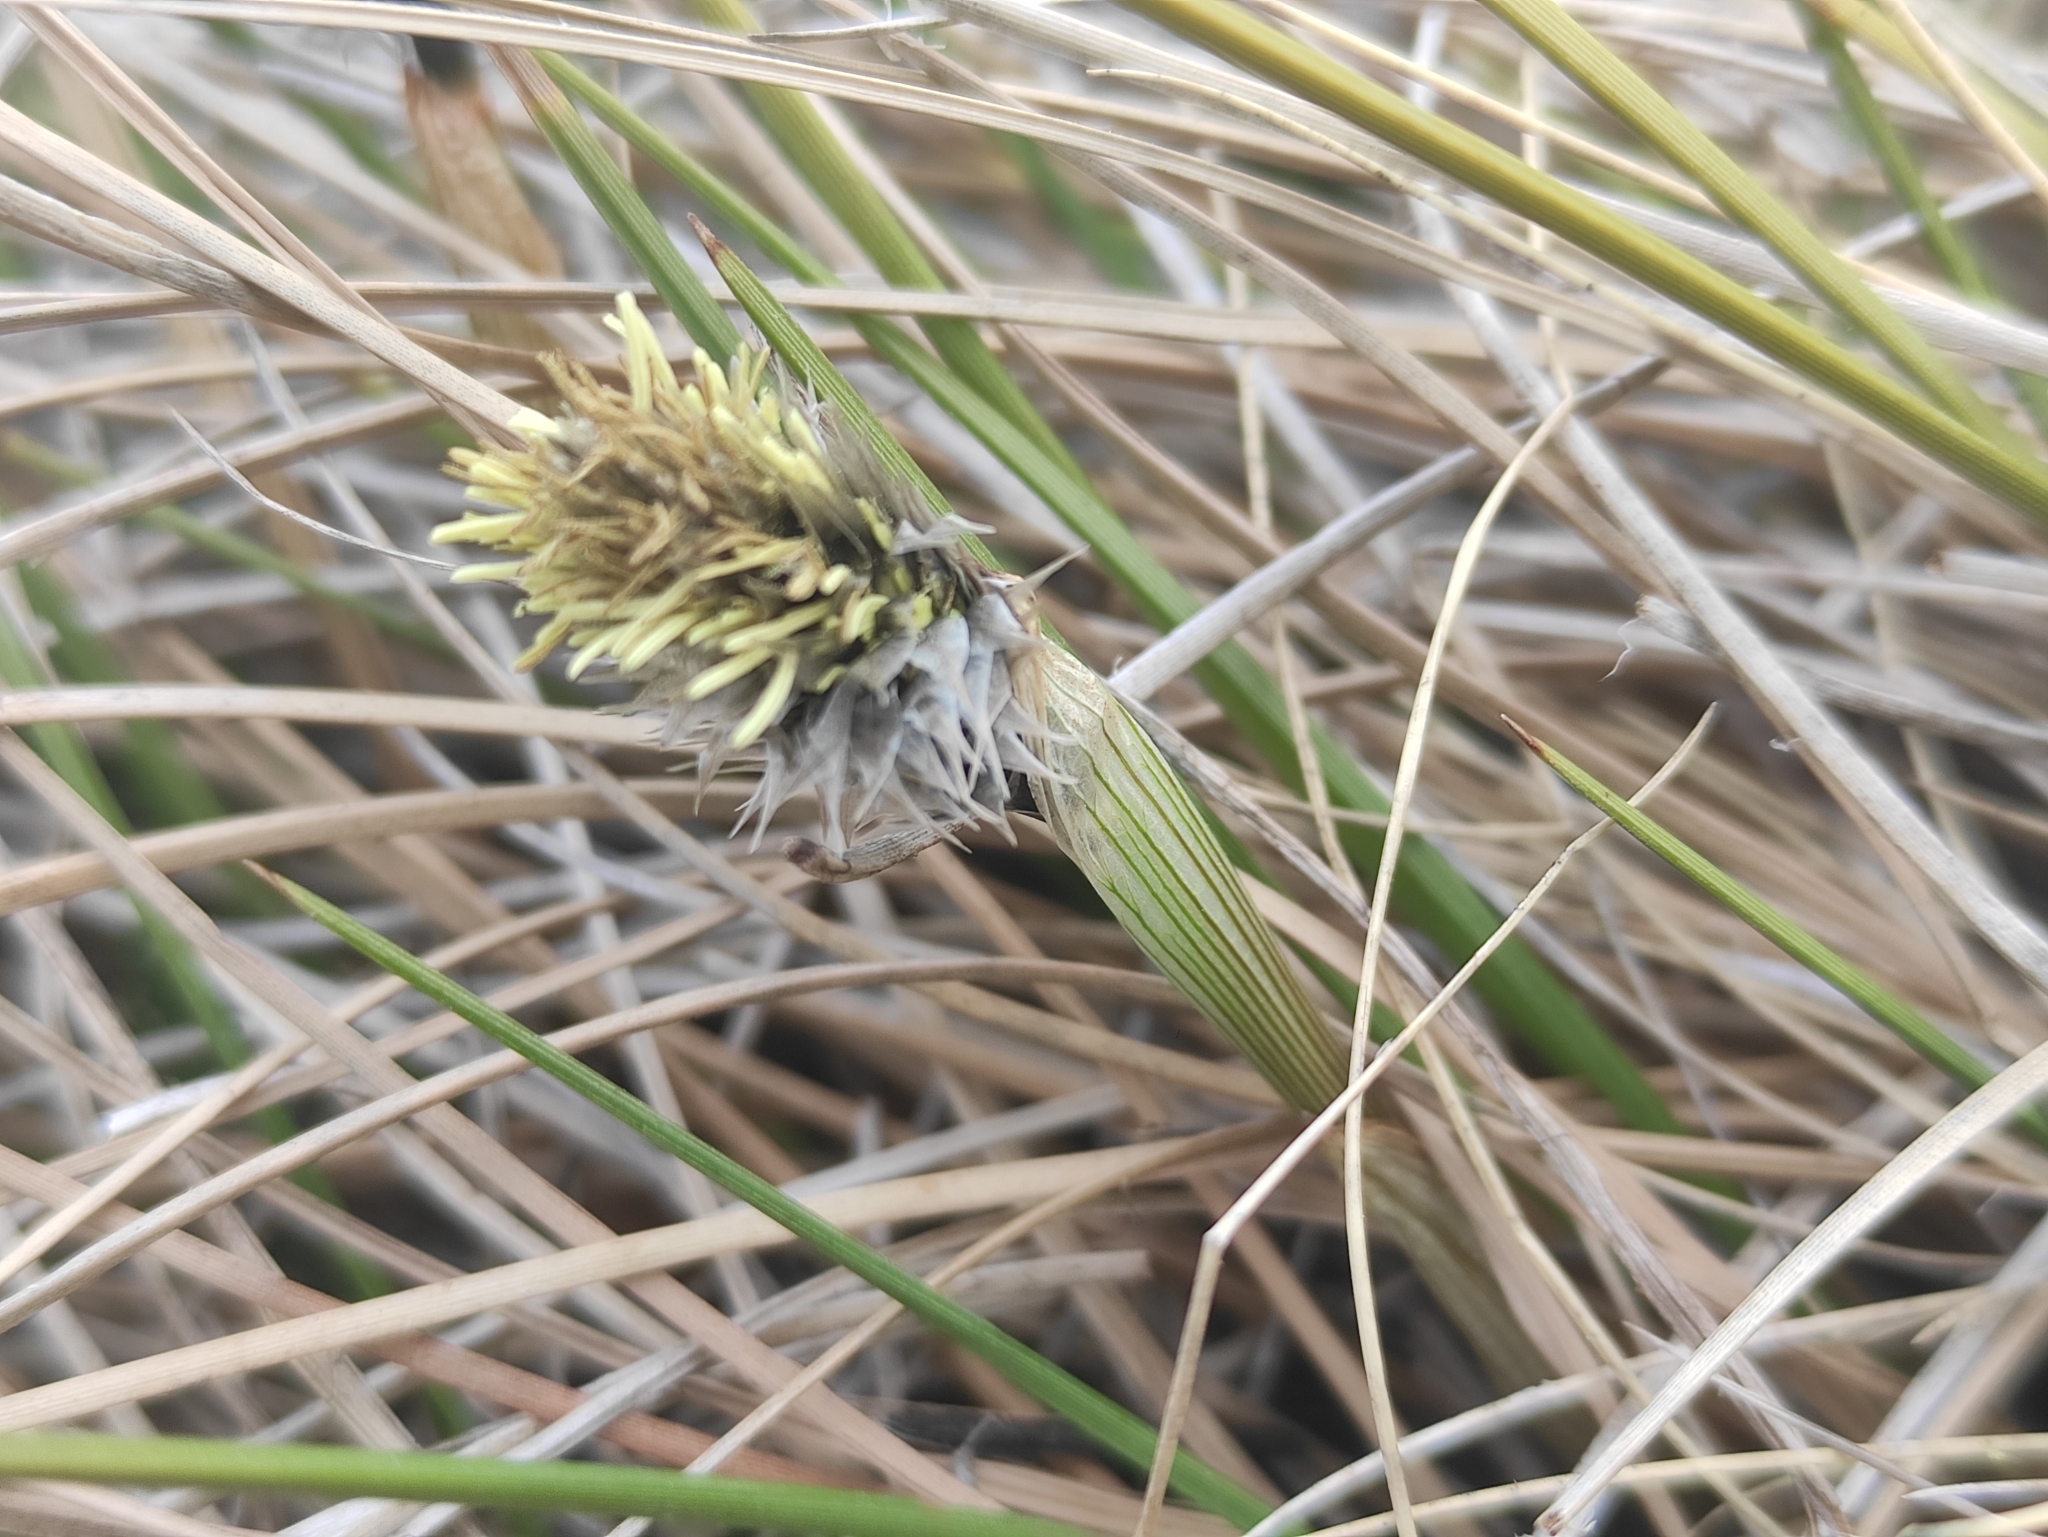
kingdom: Plantae
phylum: Tracheophyta
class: Liliopsida
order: Poales
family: Cyperaceae
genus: Eriophorum
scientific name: Eriophorum vaginatum
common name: Hare's-tail cottongrass
